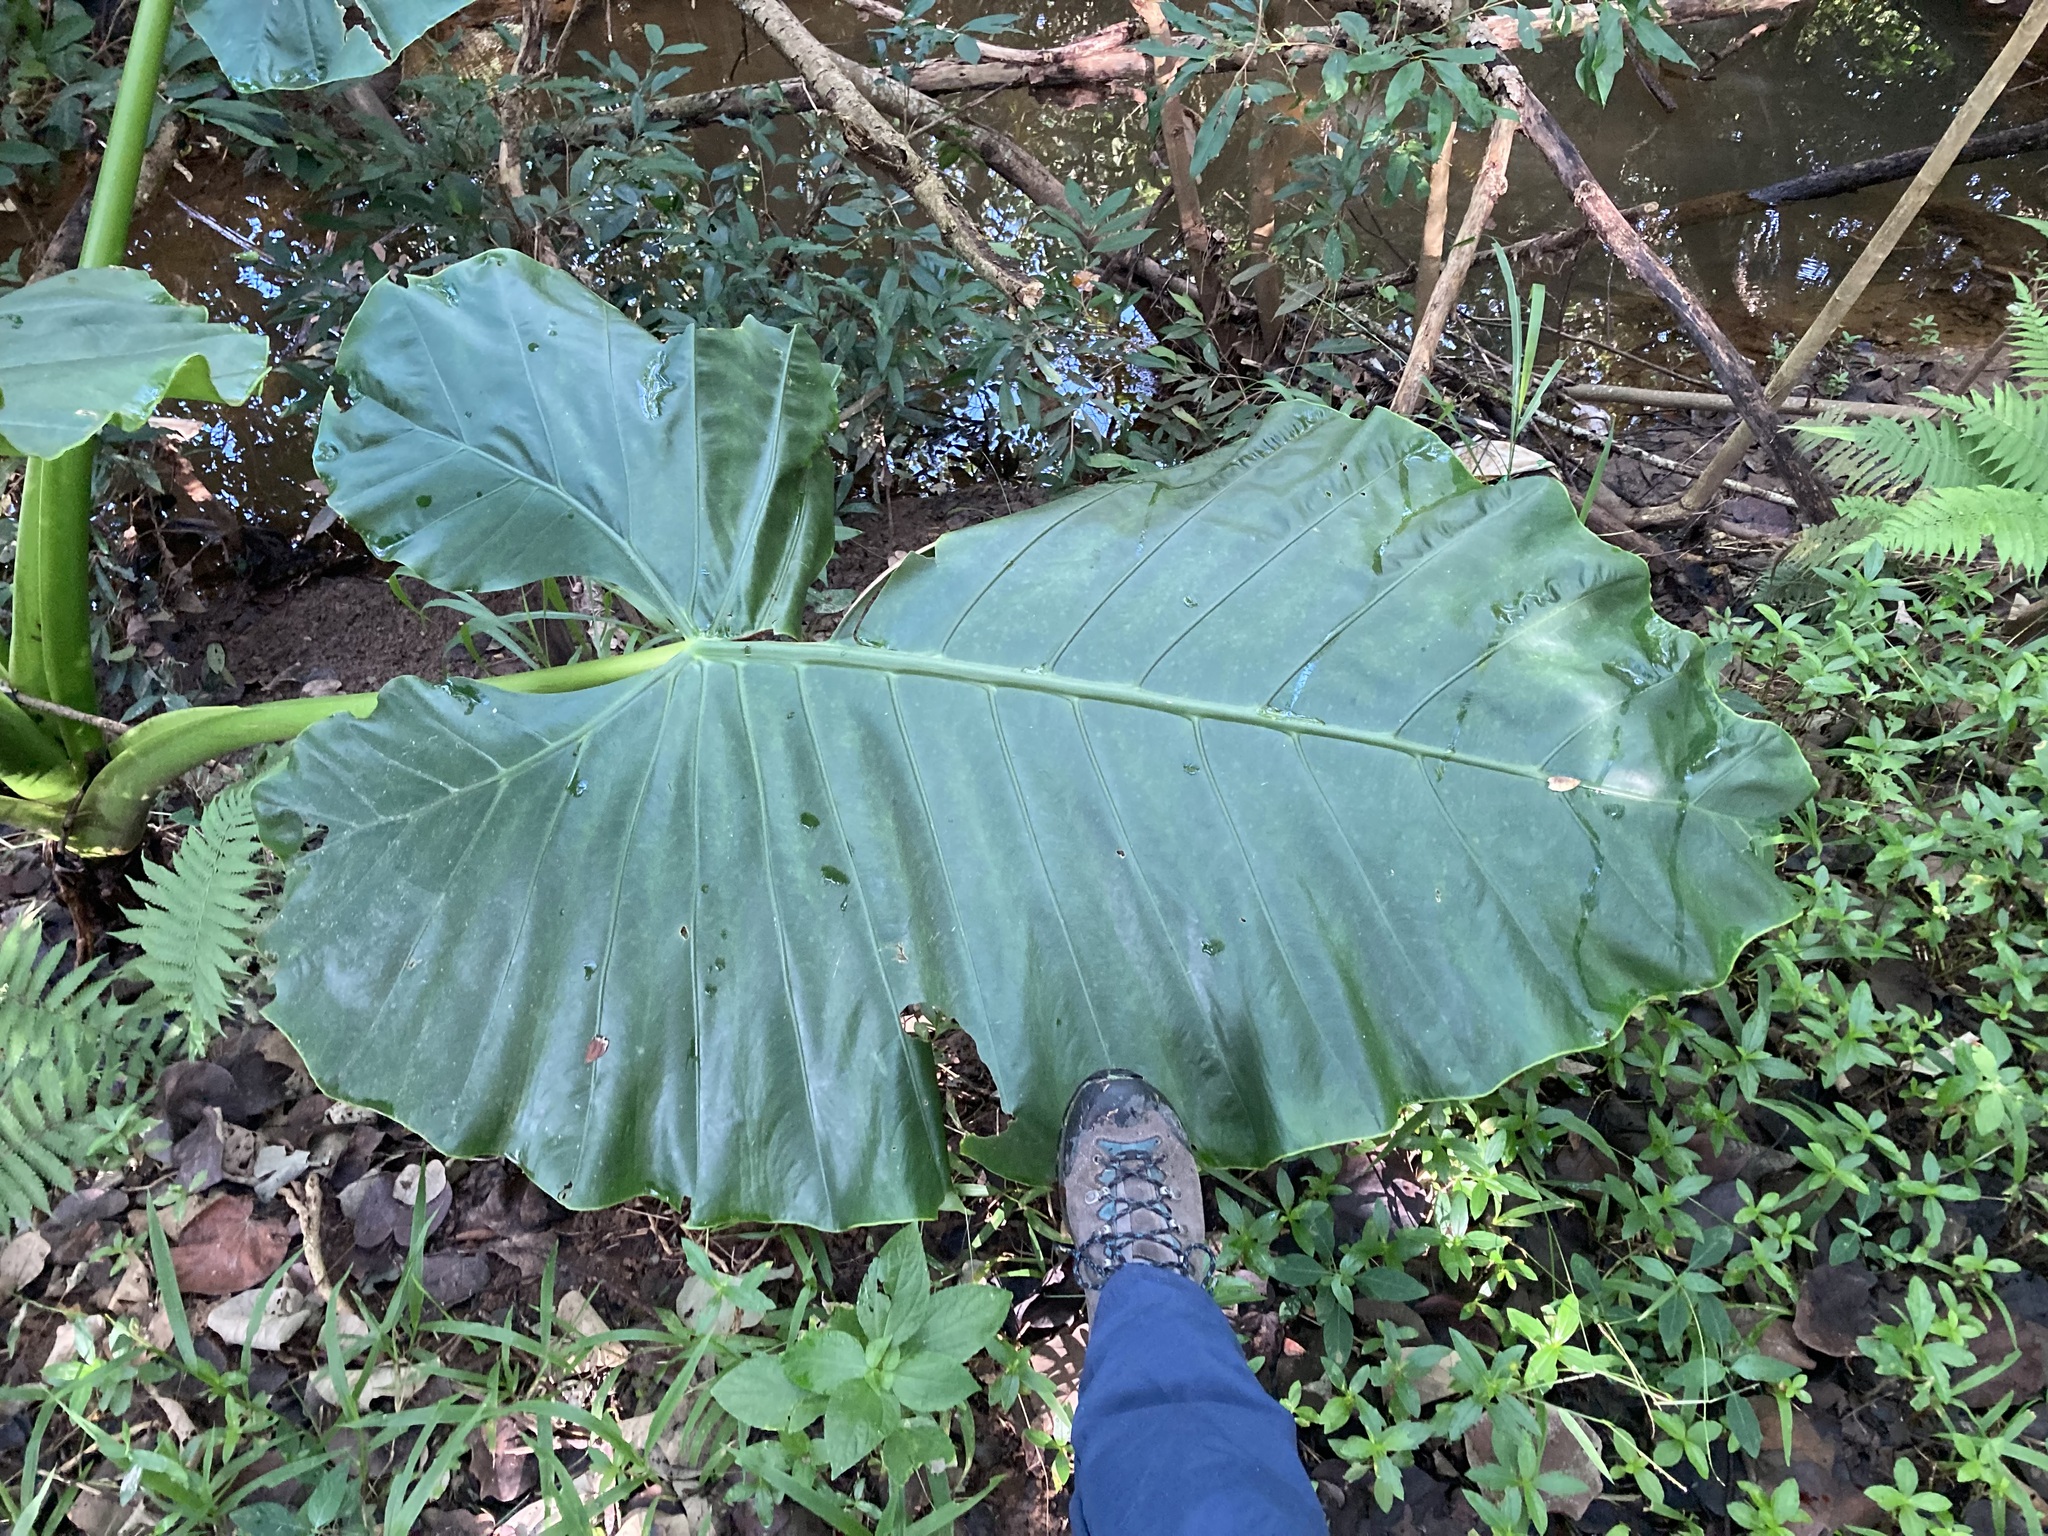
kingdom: Plantae
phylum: Tracheophyta
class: Liliopsida
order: Alismatales
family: Araceae
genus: Alocasia
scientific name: Alocasia macrorrhizos
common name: Giant taro
